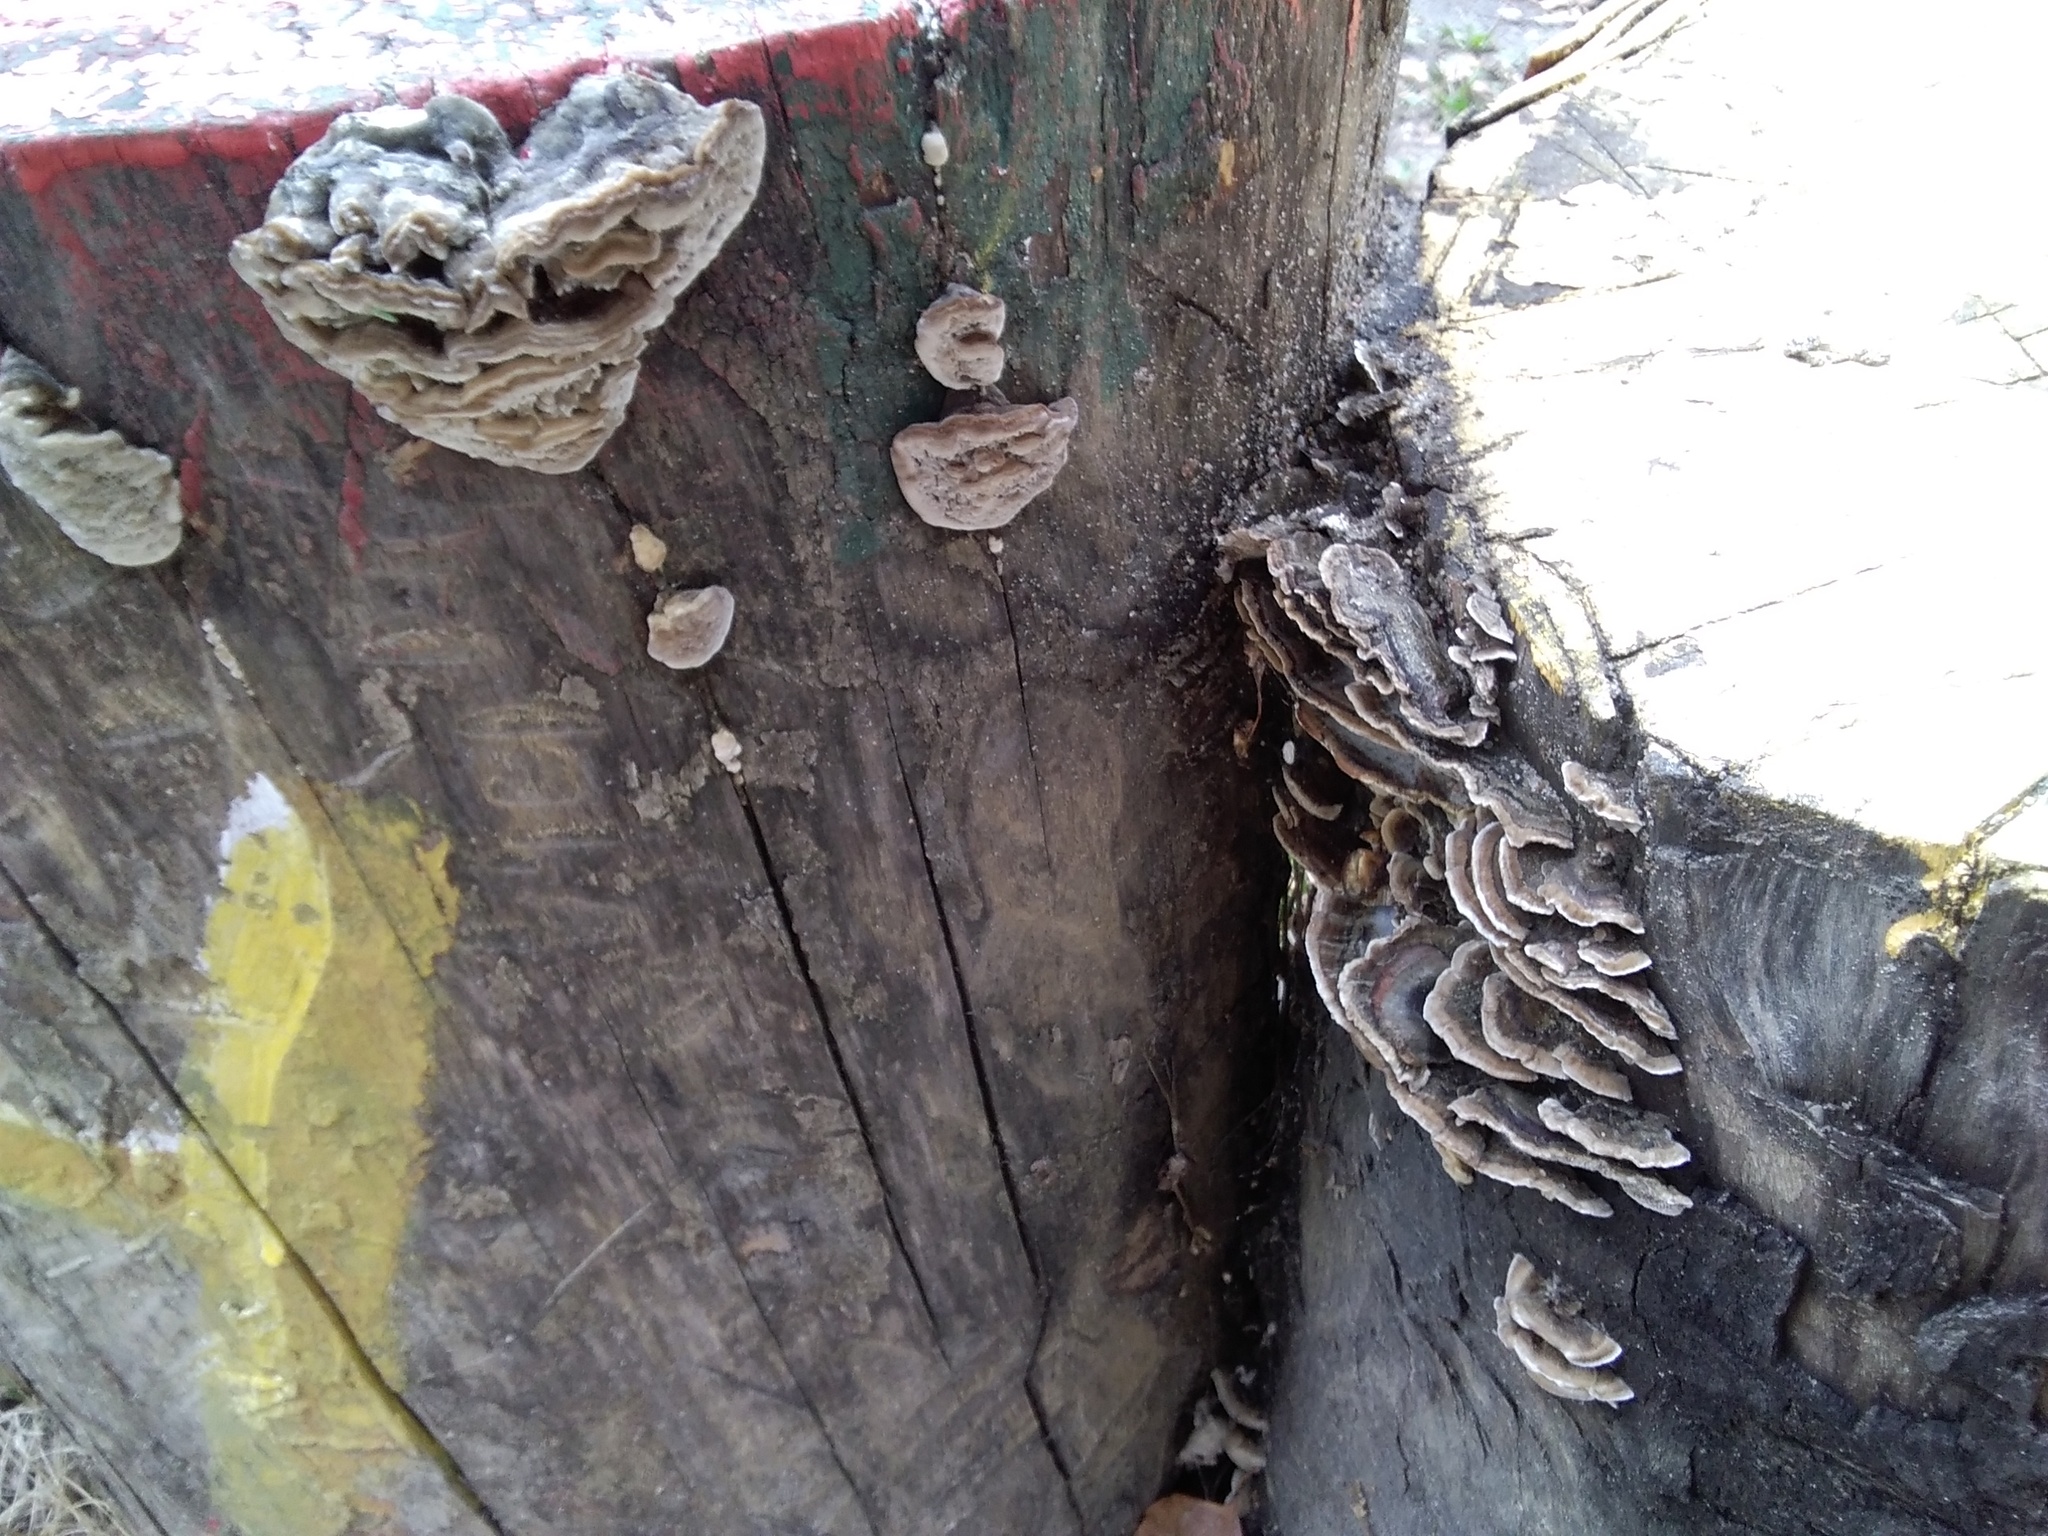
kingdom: Fungi
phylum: Basidiomycota
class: Agaricomycetes
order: Polyporales
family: Phanerochaetaceae
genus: Bjerkandera
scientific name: Bjerkandera adusta
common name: Smoky bracket
